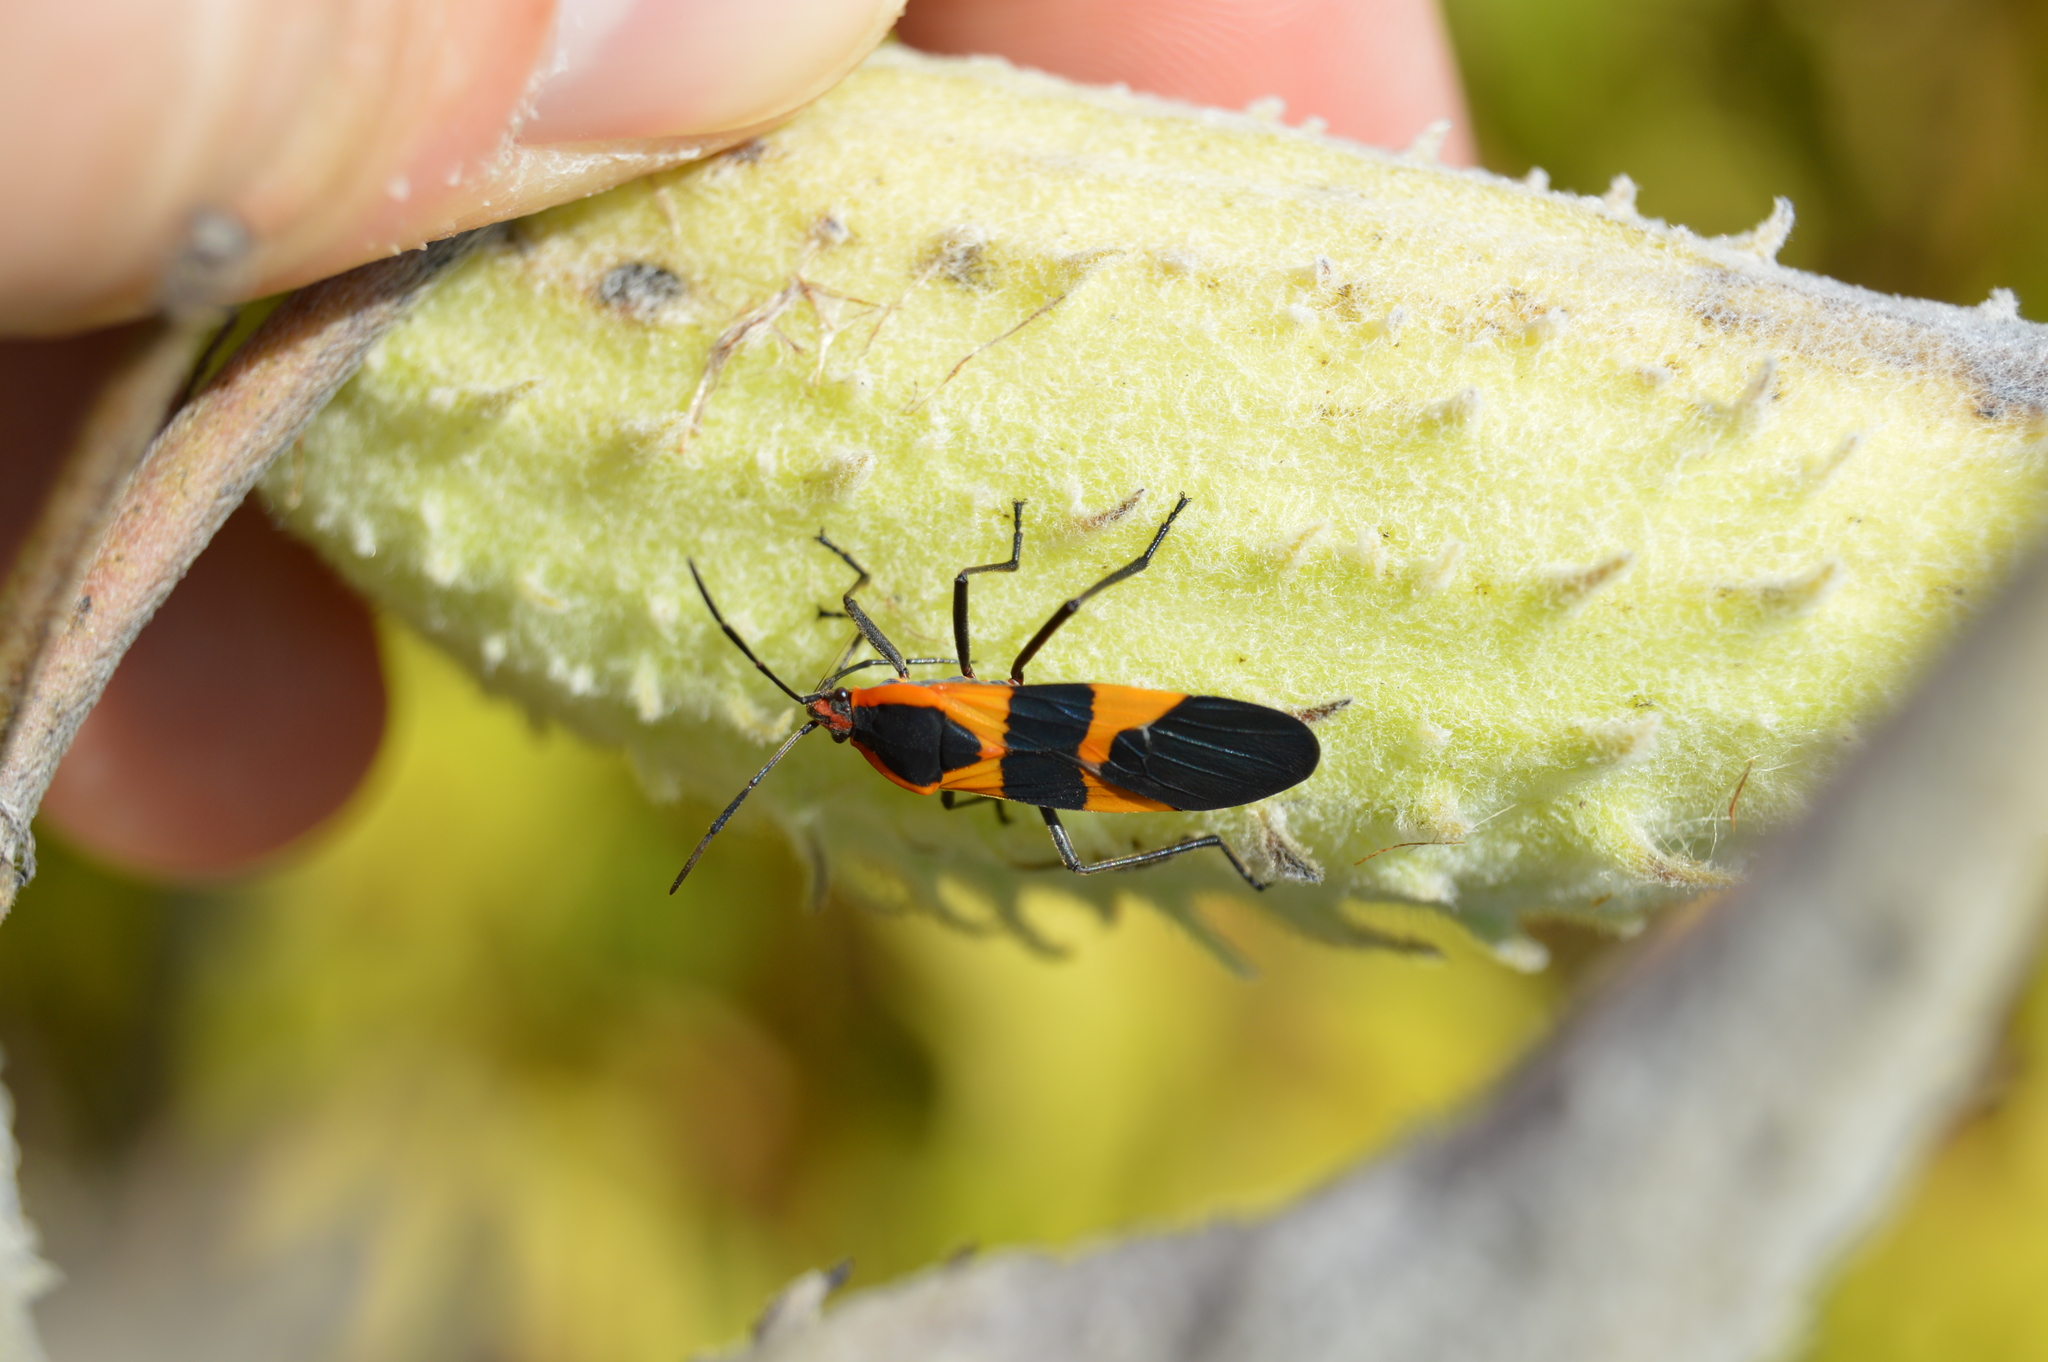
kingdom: Animalia
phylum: Arthropoda
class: Insecta
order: Hemiptera
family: Lygaeidae
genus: Oncopeltus
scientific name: Oncopeltus fasciatus
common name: Large milkweed bug
